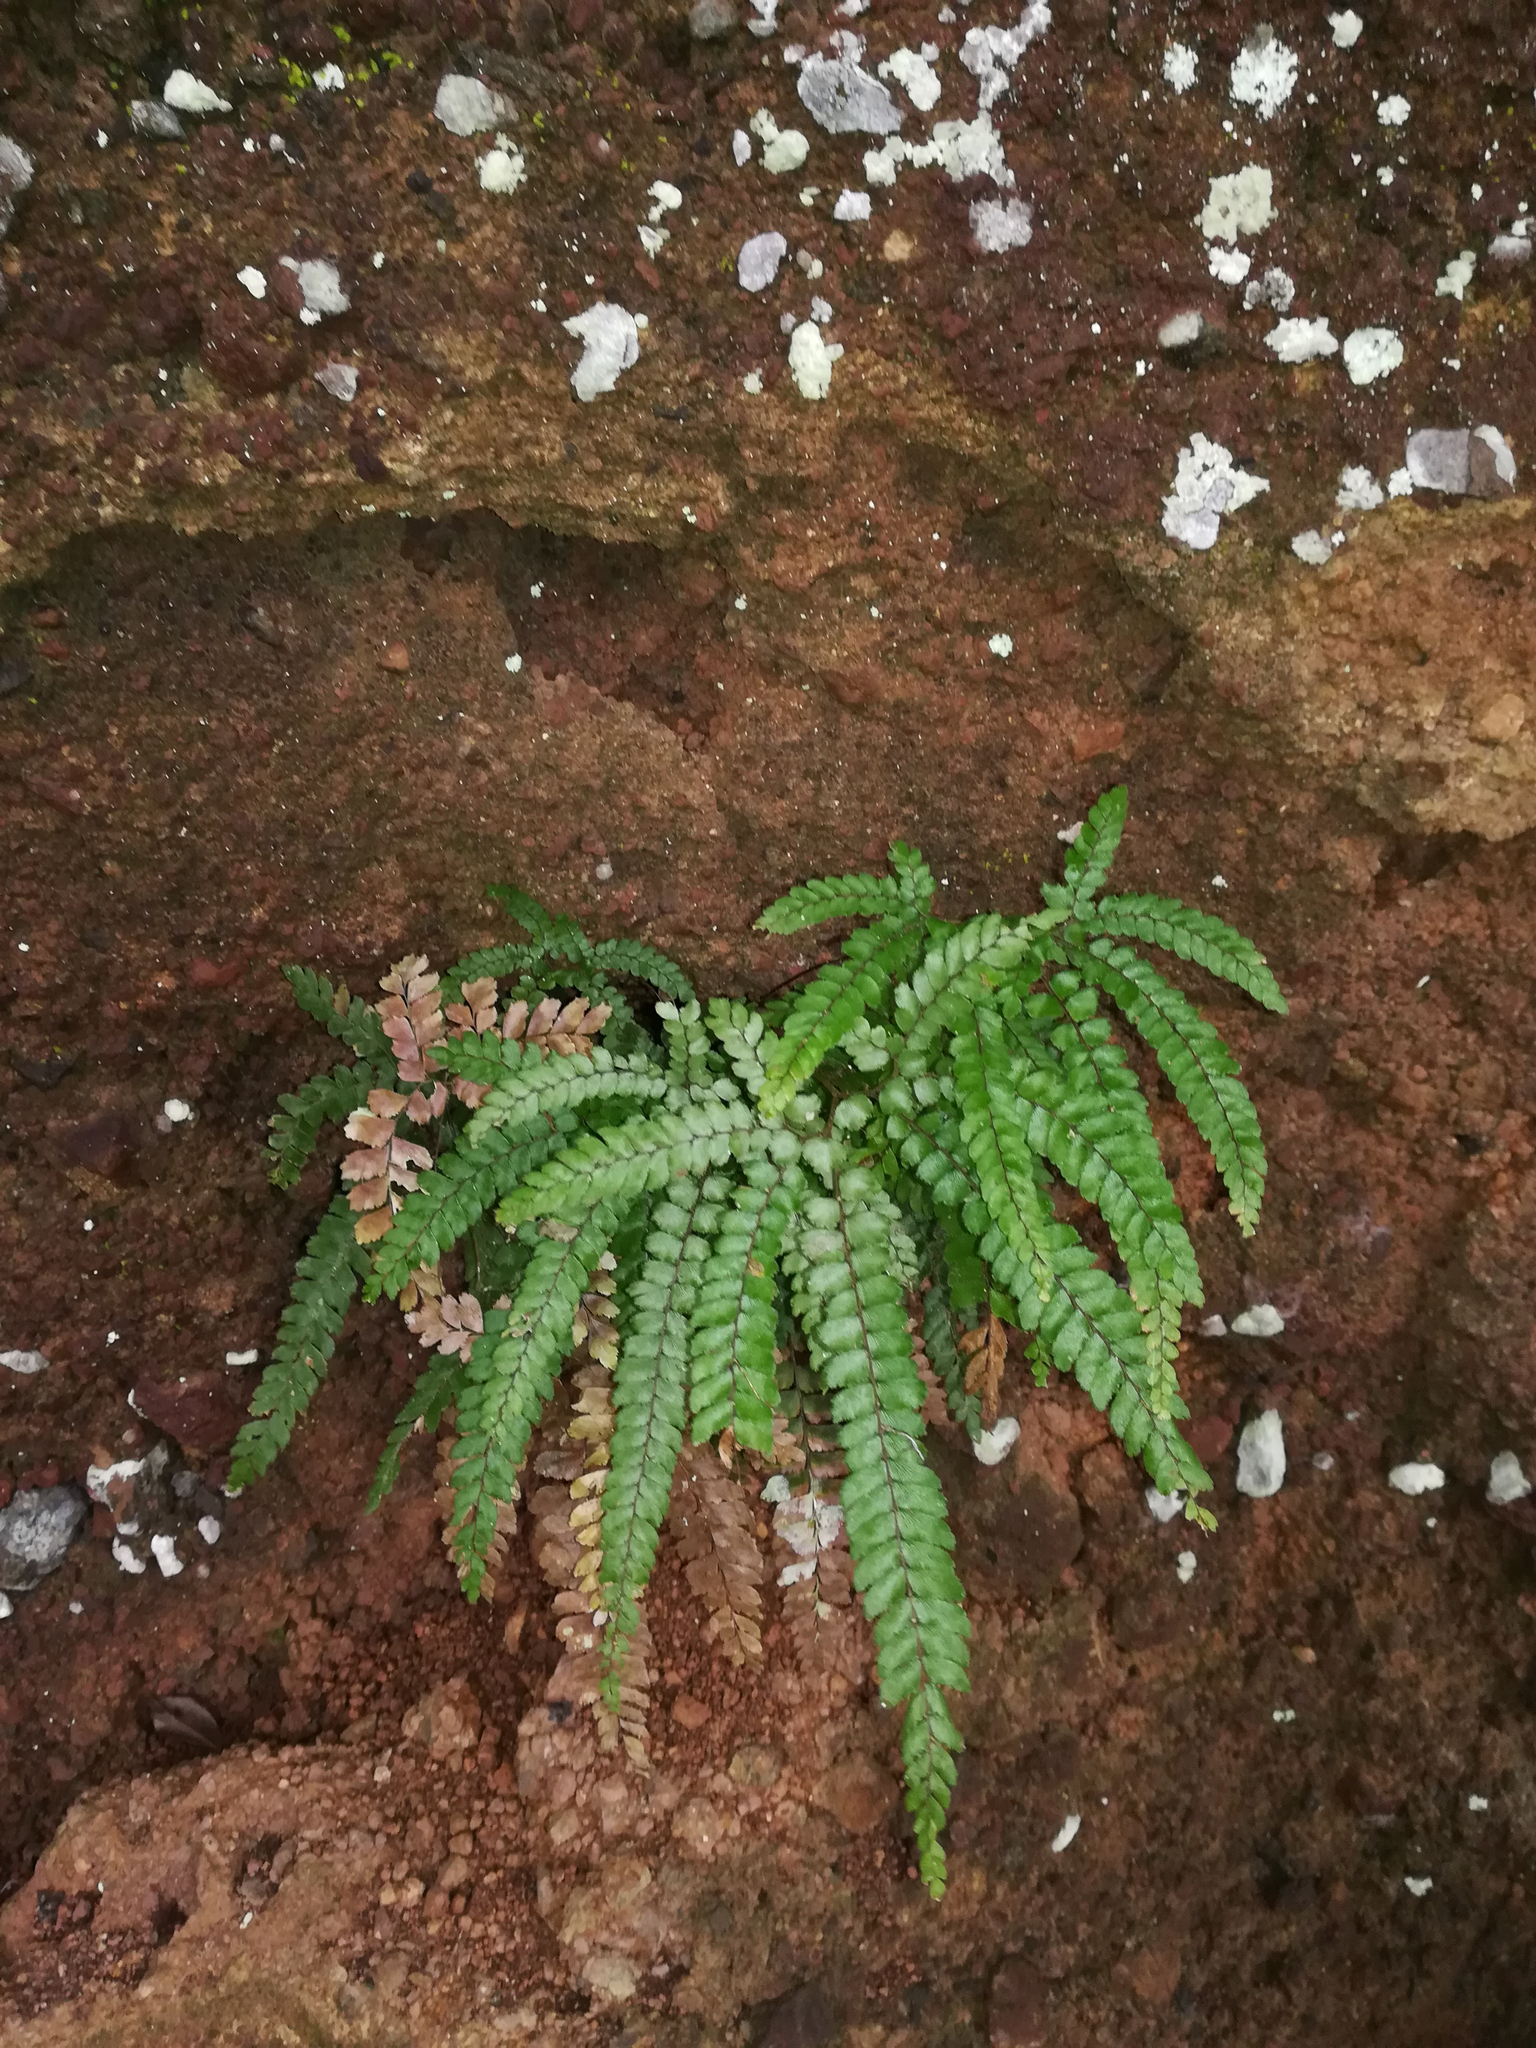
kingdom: Plantae
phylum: Tracheophyta
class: Polypodiopsida
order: Polypodiales
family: Pteridaceae
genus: Adiantum
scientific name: Adiantum hispidulum
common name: Rough maidenhair
